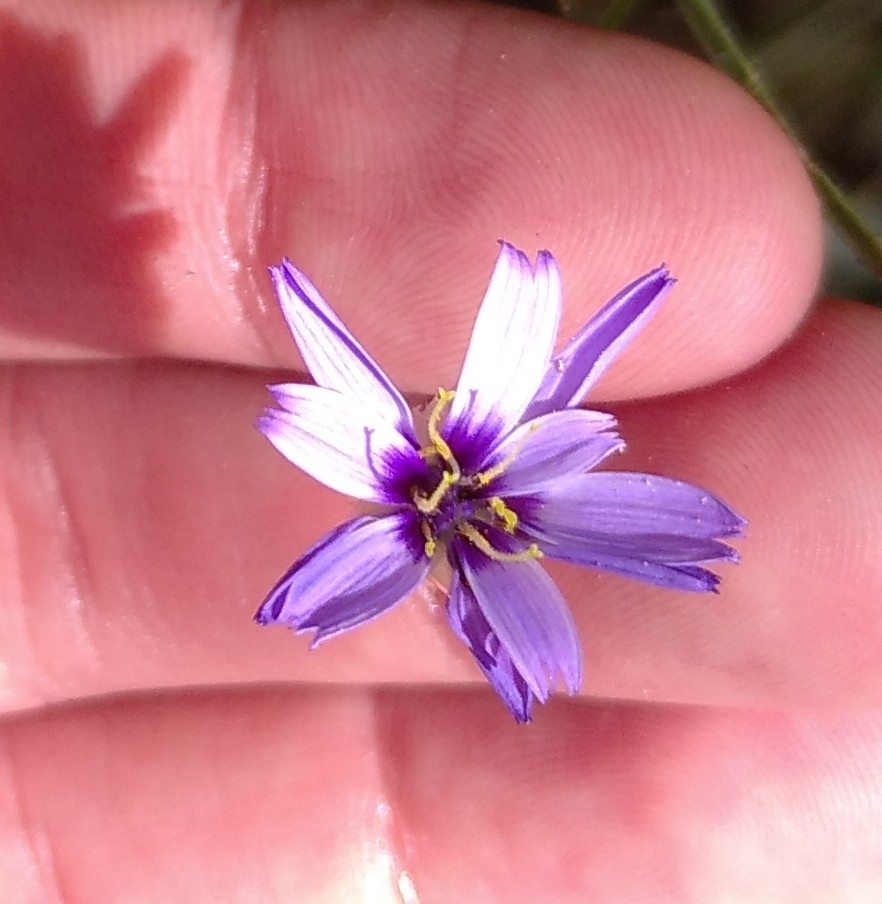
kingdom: Plantae
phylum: Tracheophyta
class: Magnoliopsida
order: Asterales
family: Asteraceae
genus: Catananche
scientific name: Catananche caerulea
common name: Blue cupidone
